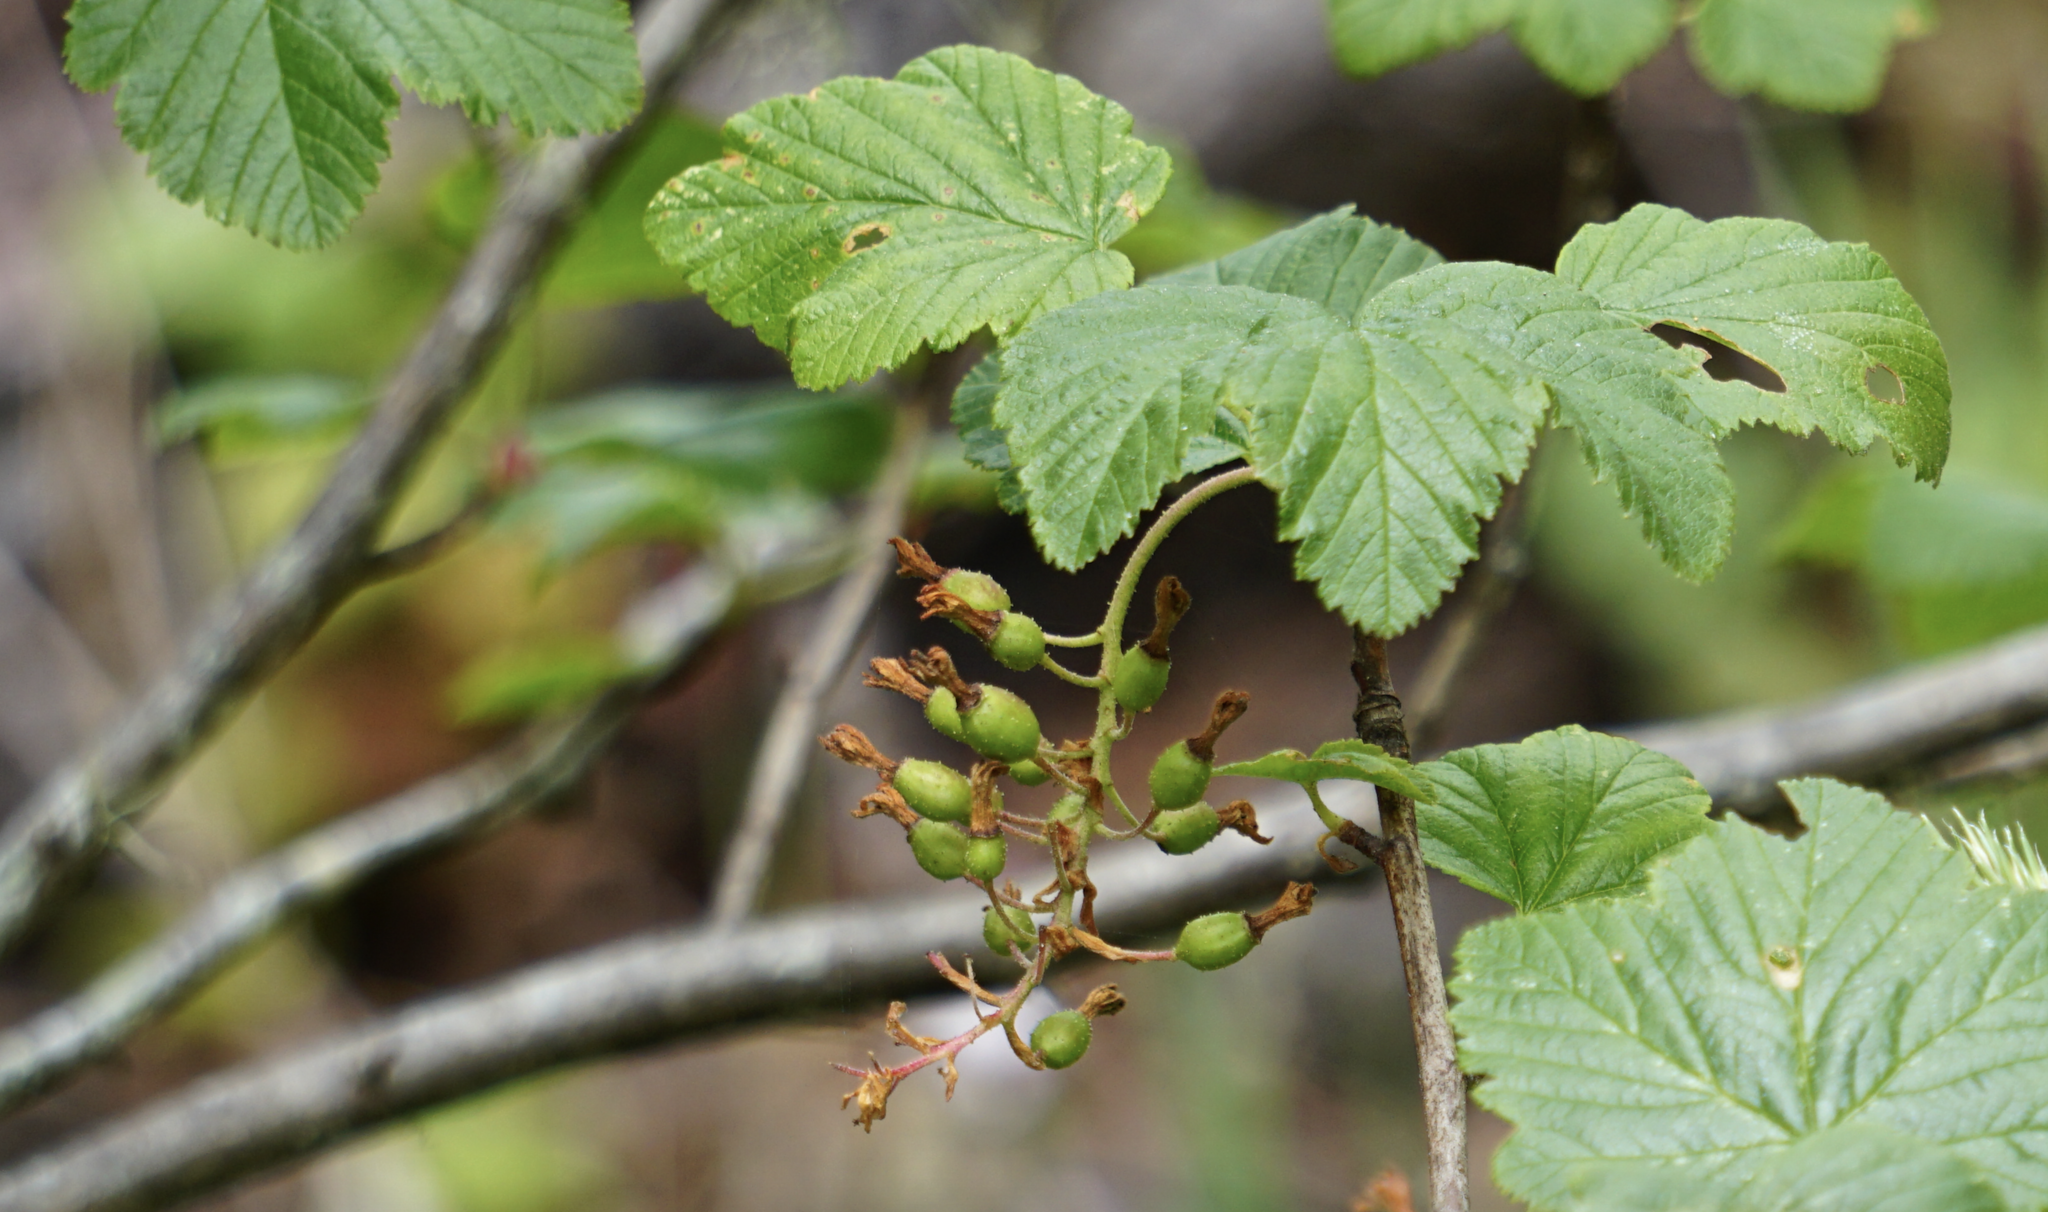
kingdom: Plantae
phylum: Tracheophyta
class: Magnoliopsida
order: Saxifragales
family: Grossulariaceae
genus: Ribes
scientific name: Ribes sanguineum
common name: Flowering currant
